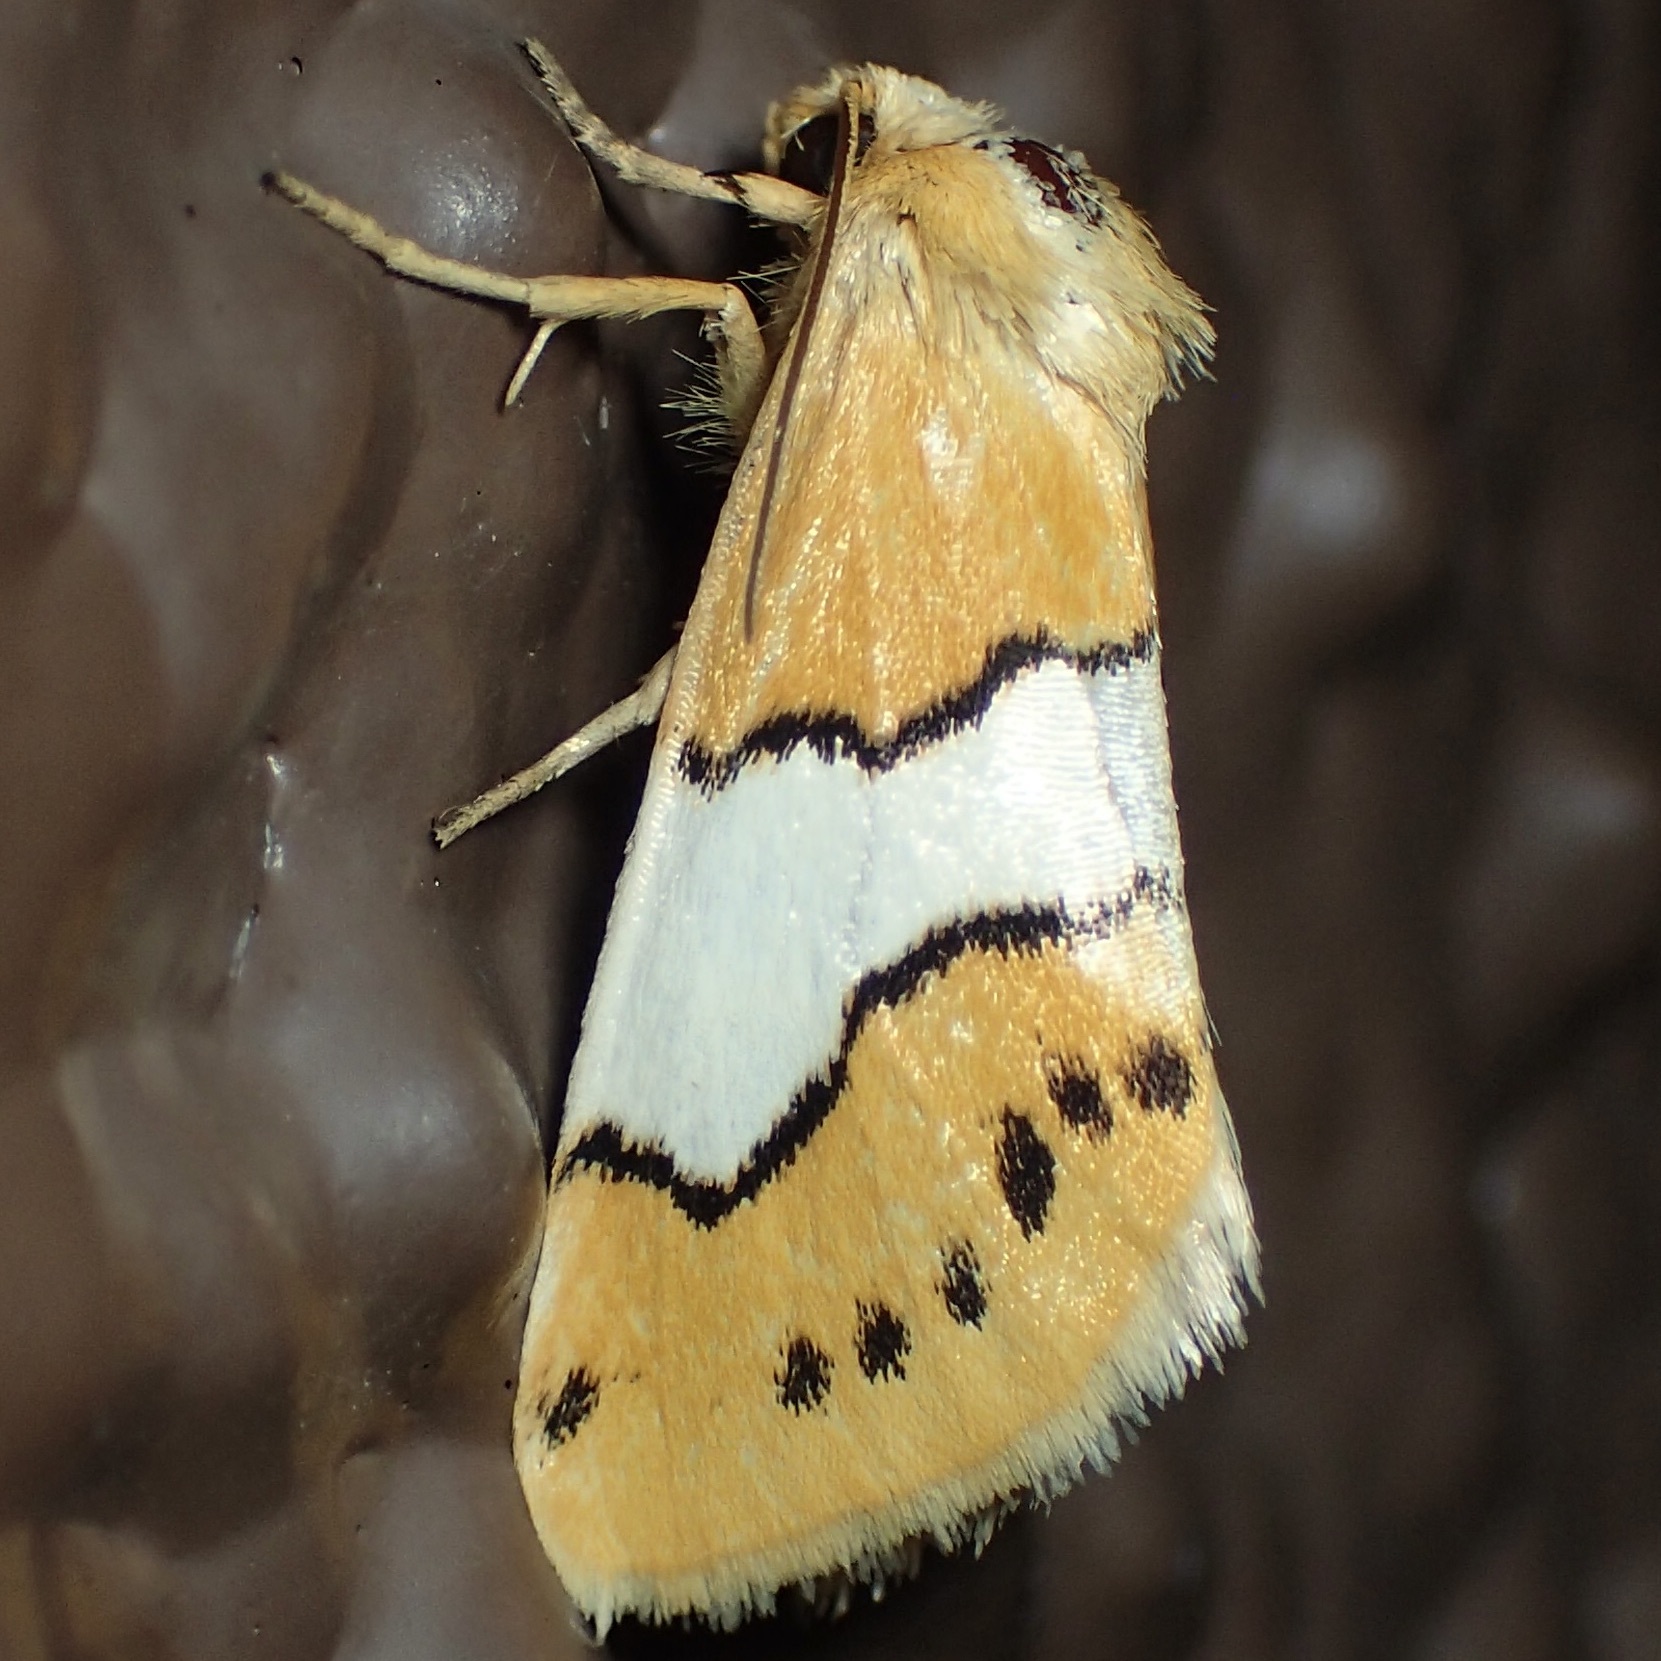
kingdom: Animalia
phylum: Arthropoda
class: Insecta
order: Lepidoptera
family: Noctuidae
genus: Lineostriastiria
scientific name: Lineostriastiria hachita
